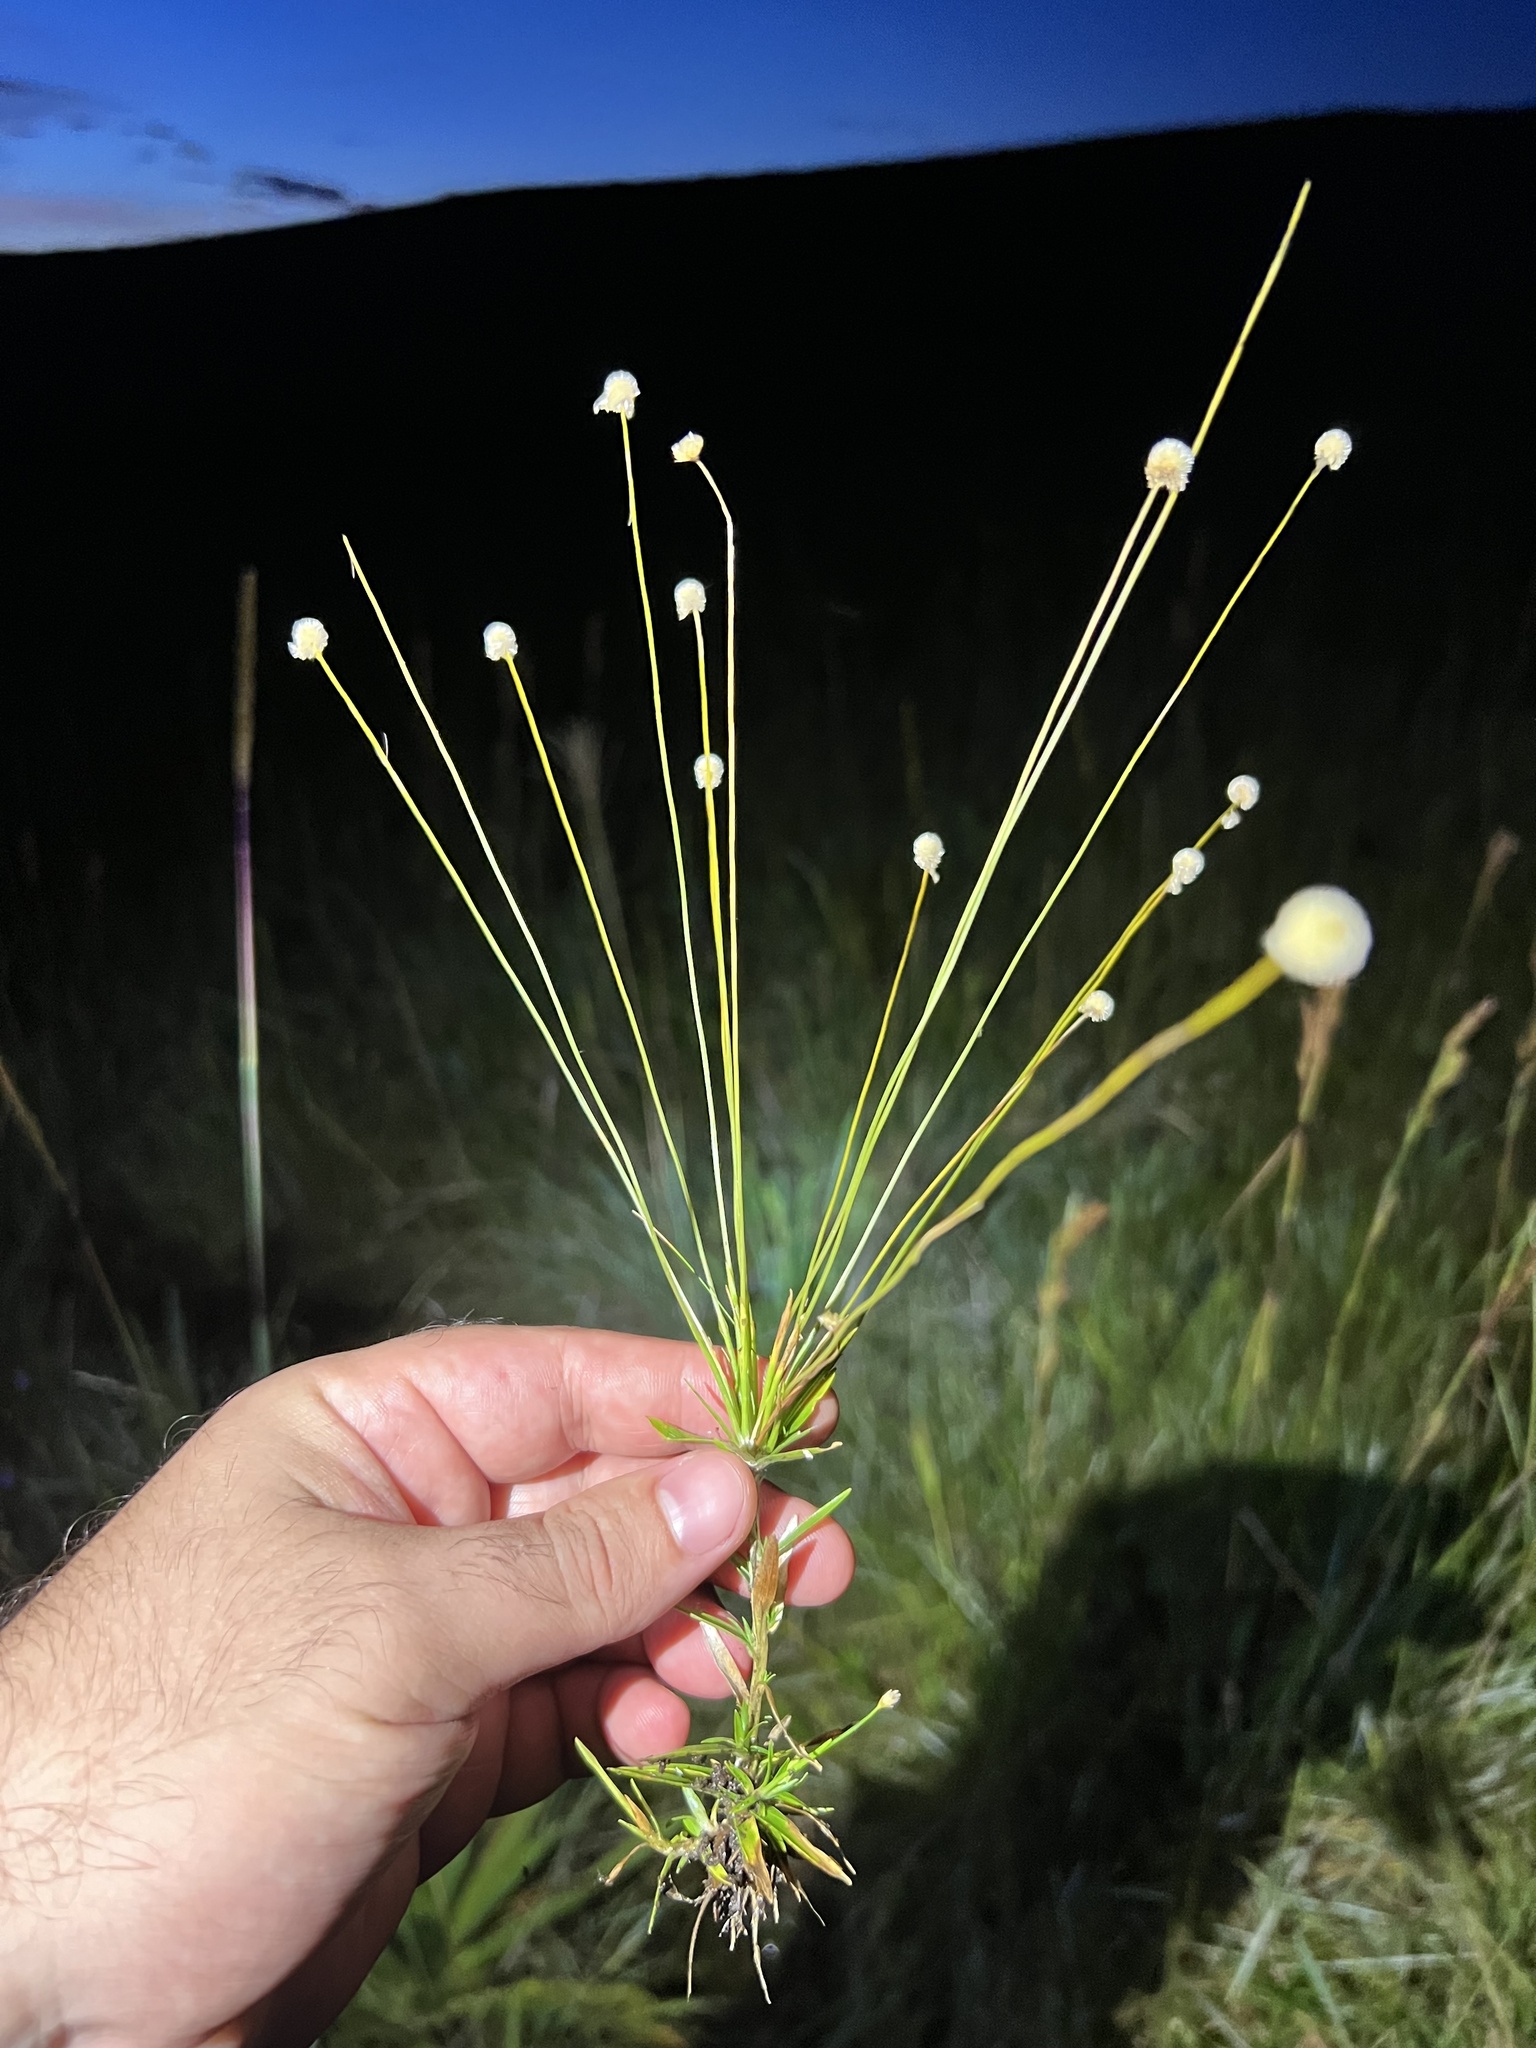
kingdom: Plantae
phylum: Tracheophyta
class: Liliopsida
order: Poales
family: Eriocaulaceae
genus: Syngonanthus
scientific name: Syngonanthus caulescens
